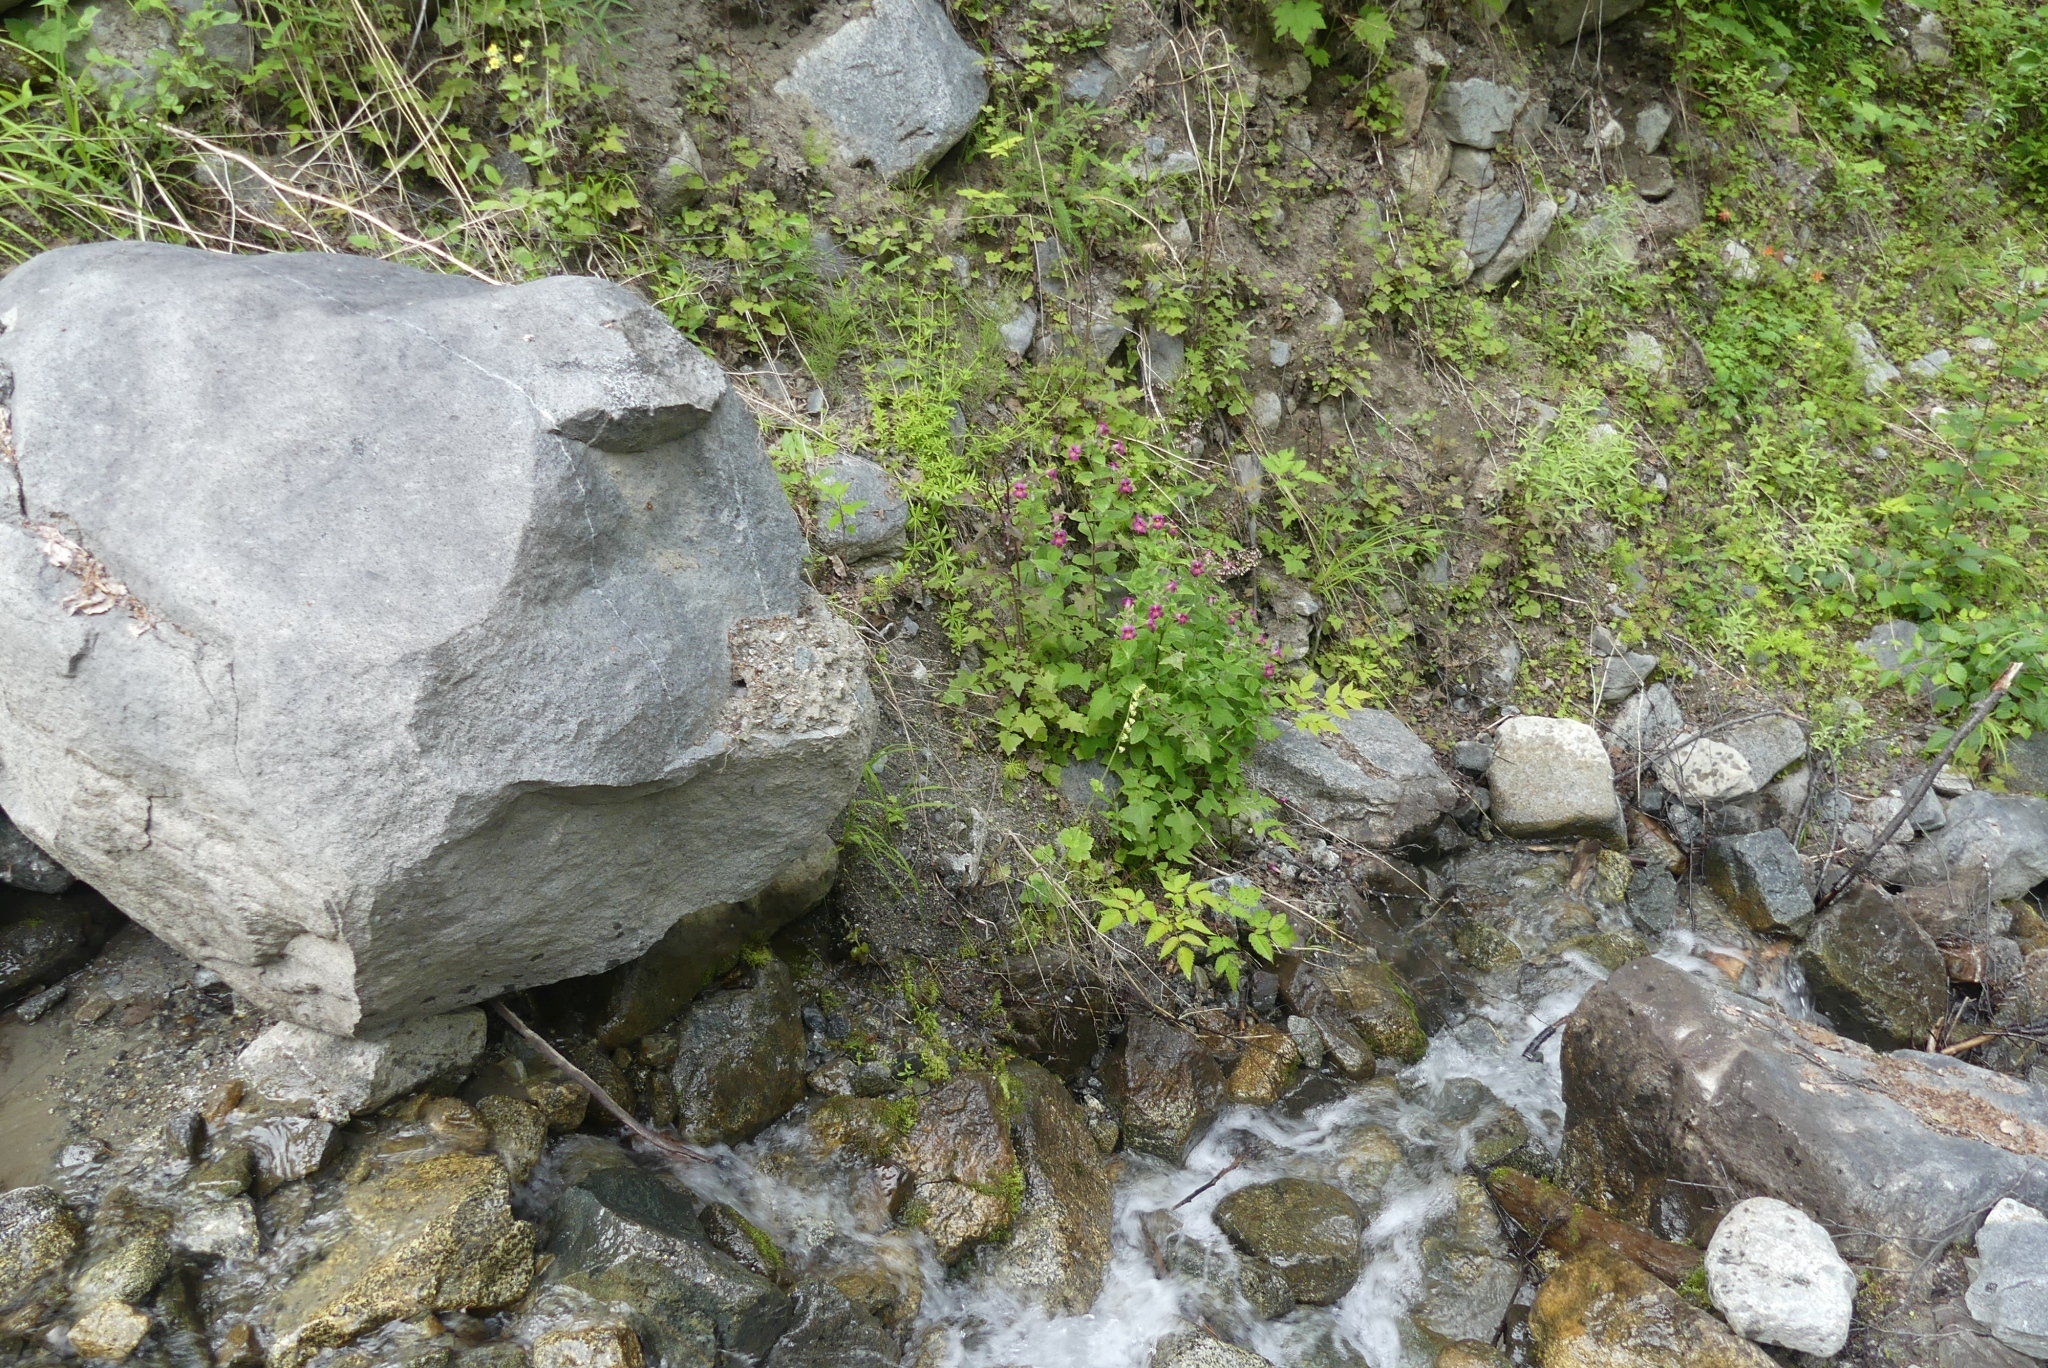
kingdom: Plantae
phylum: Tracheophyta
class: Magnoliopsida
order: Lamiales
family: Phrymaceae
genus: Erythranthe
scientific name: Erythranthe lewisii
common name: Lewis's monkey-flower
